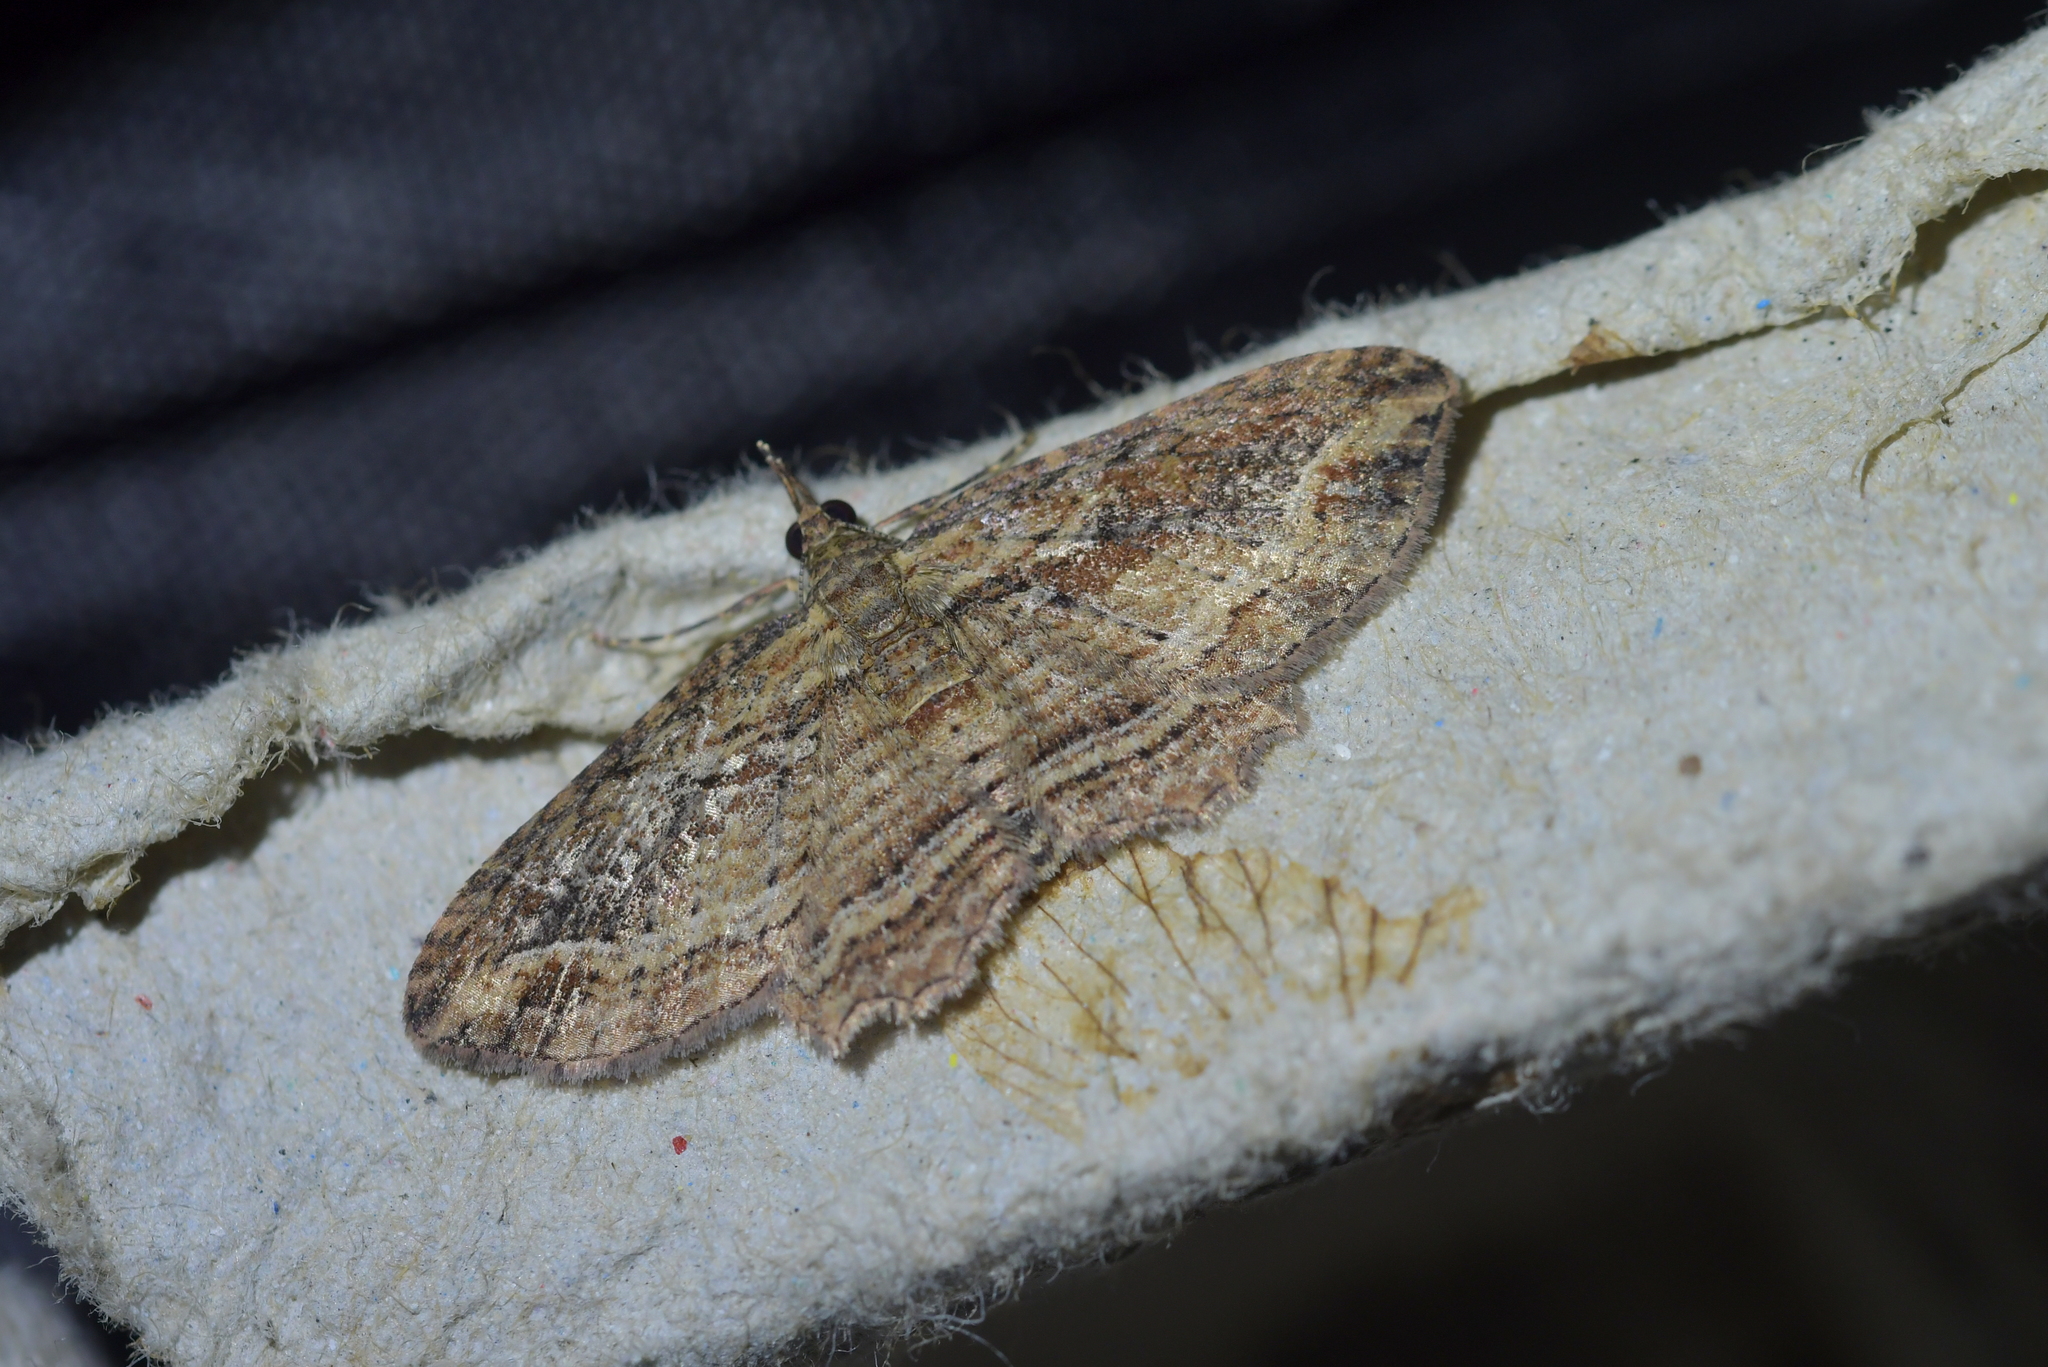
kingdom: Animalia
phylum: Arthropoda
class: Insecta
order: Lepidoptera
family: Geometridae
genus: Chloroclystis
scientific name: Chloroclystis filata
